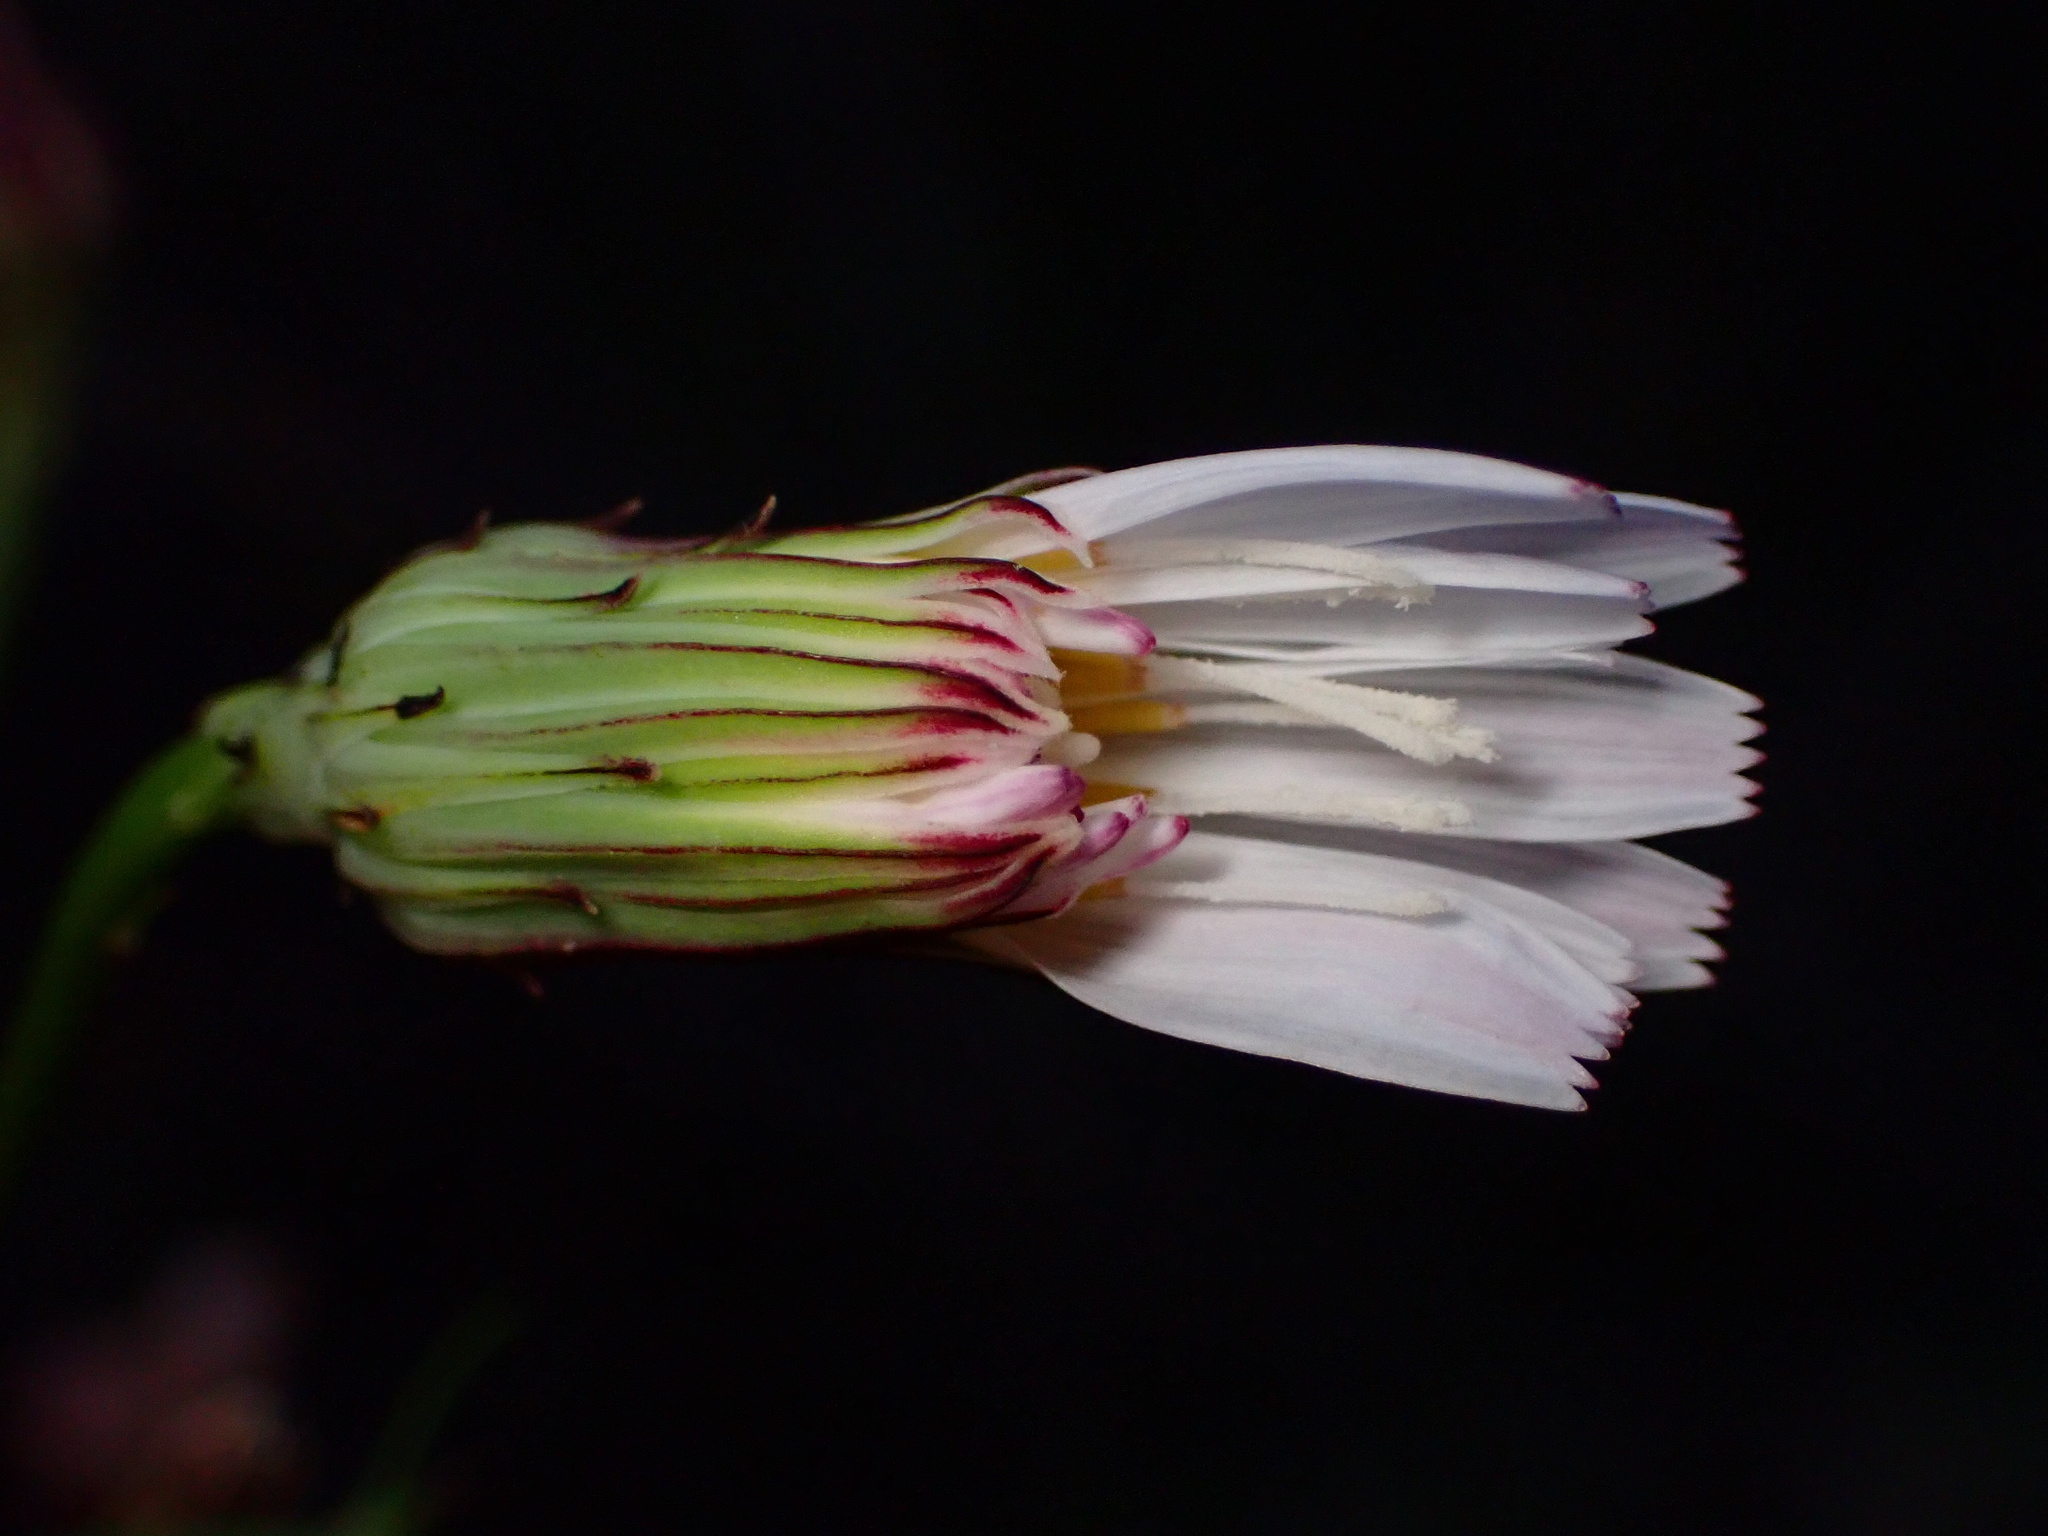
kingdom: Plantae
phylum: Tracheophyta
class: Magnoliopsida
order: Asterales
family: Asteraceae
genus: Malacothrix
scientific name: Malacothrix saxatilis
